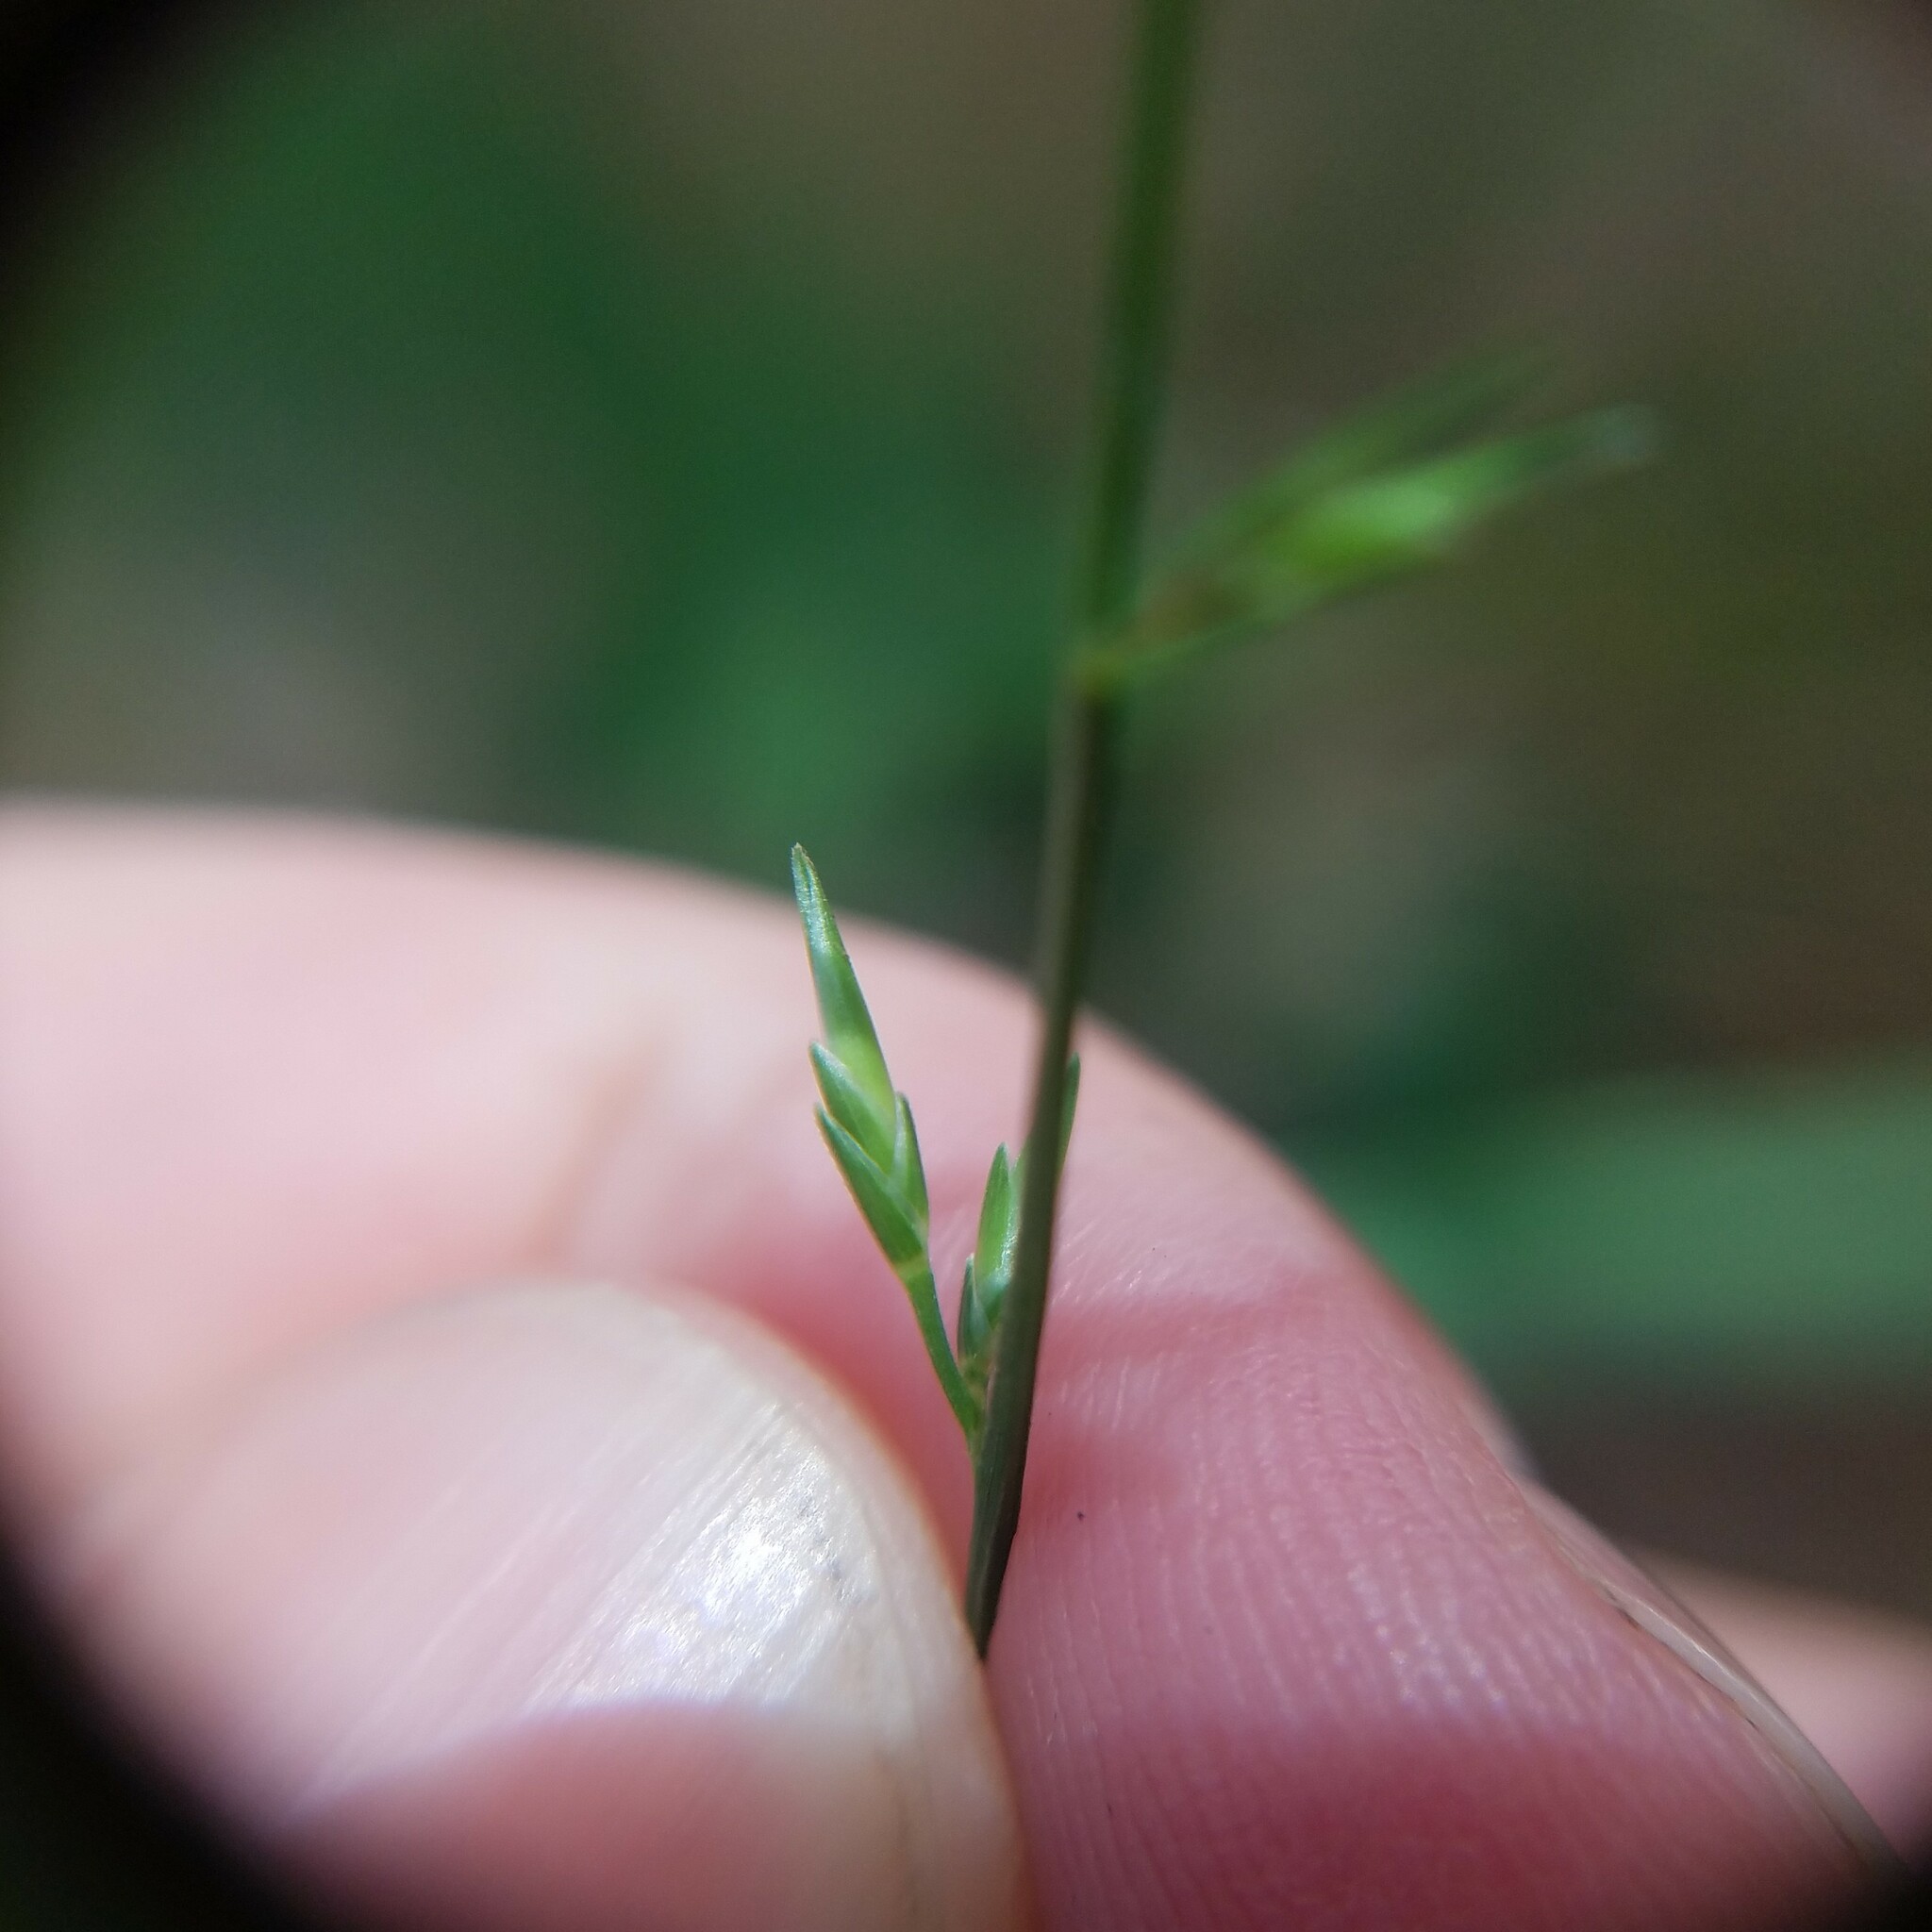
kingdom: Plantae
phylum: Tracheophyta
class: Liliopsida
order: Poales
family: Poaceae
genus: Chasmanthium
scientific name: Chasmanthium laxum
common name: Slender chasmanthium
